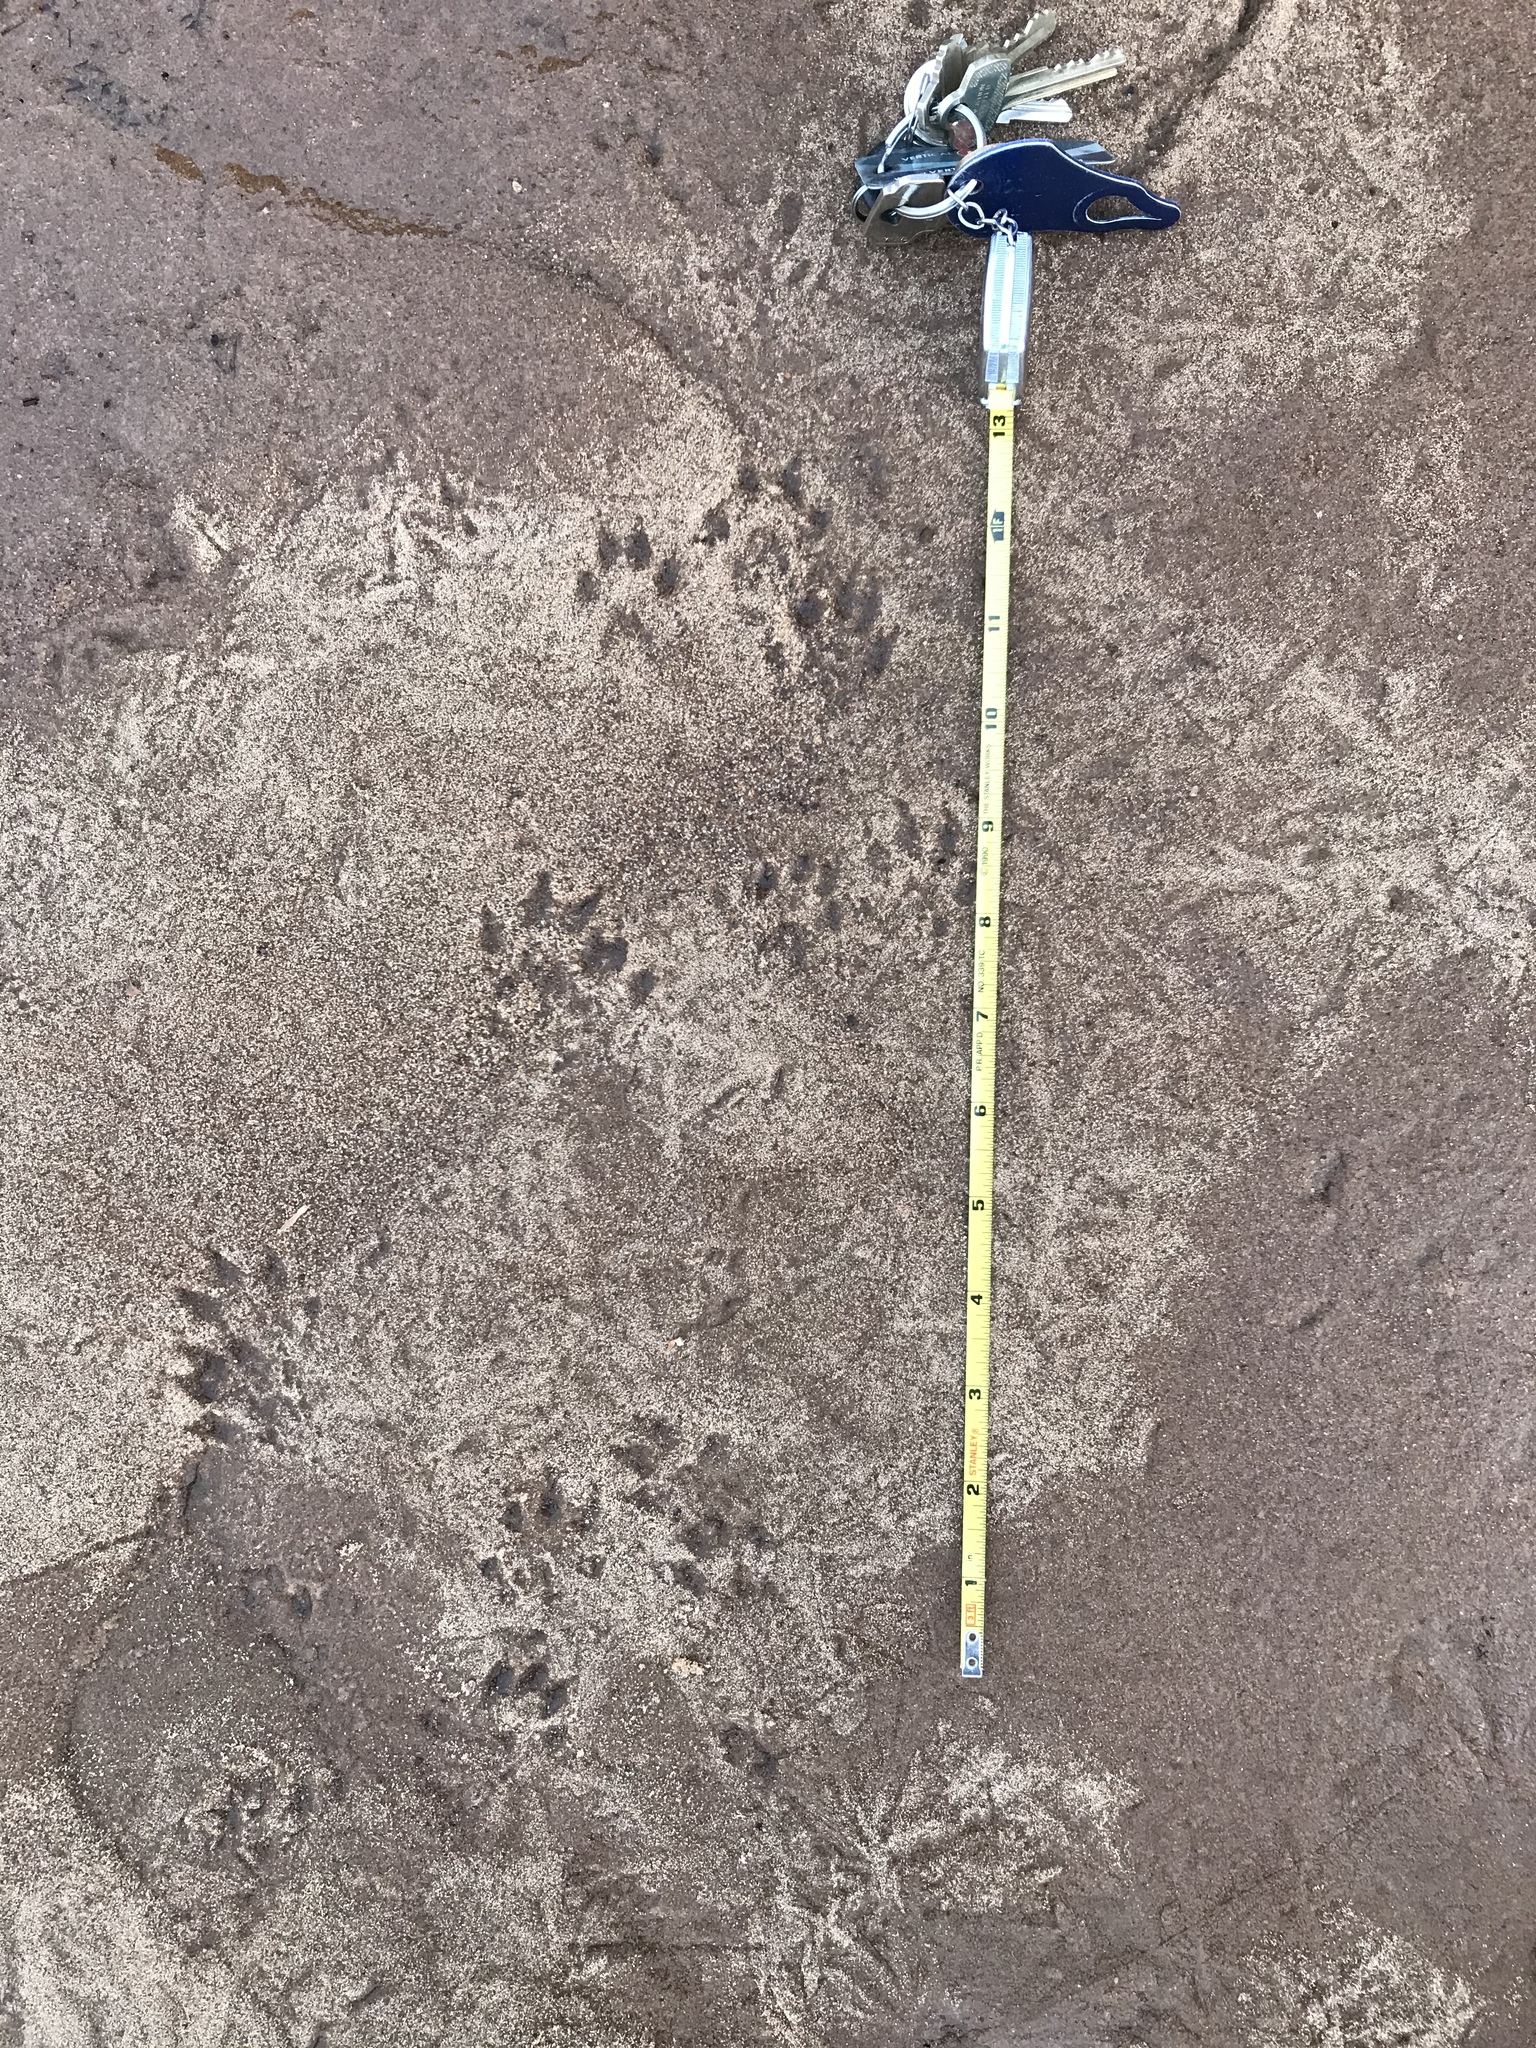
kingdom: Animalia
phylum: Chordata
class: Mammalia
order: Carnivora
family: Mustelidae
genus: Mustela
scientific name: Mustela
